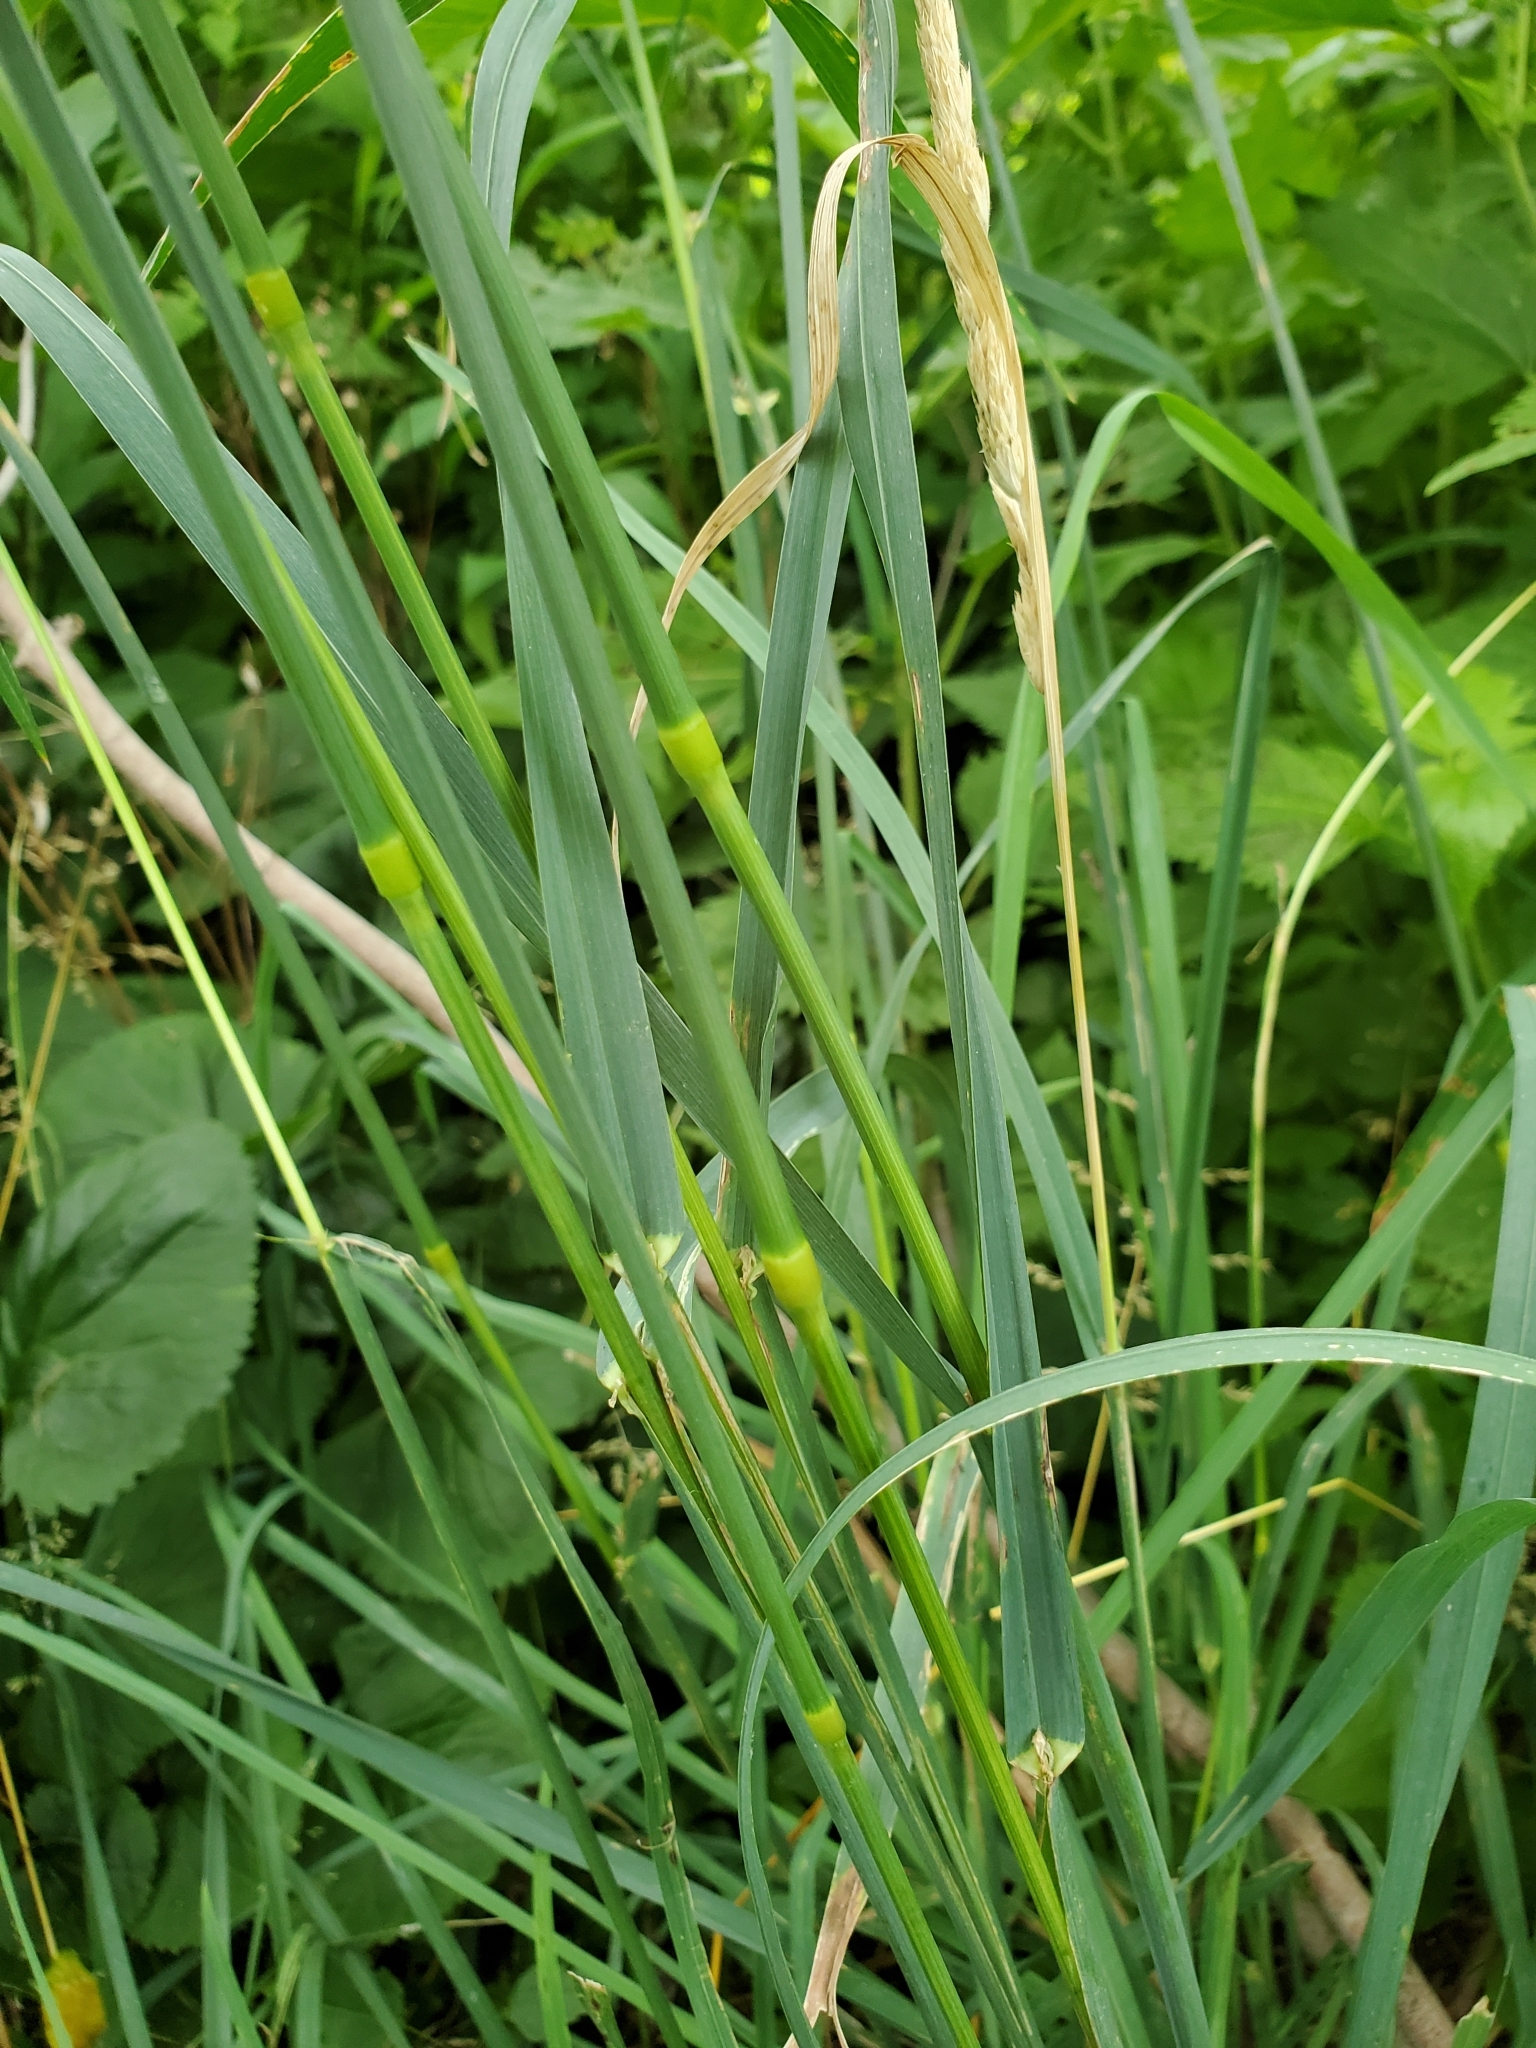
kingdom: Plantae
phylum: Tracheophyta
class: Liliopsida
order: Poales
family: Poaceae
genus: Dactylis
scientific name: Dactylis glomerata
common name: Orchardgrass
